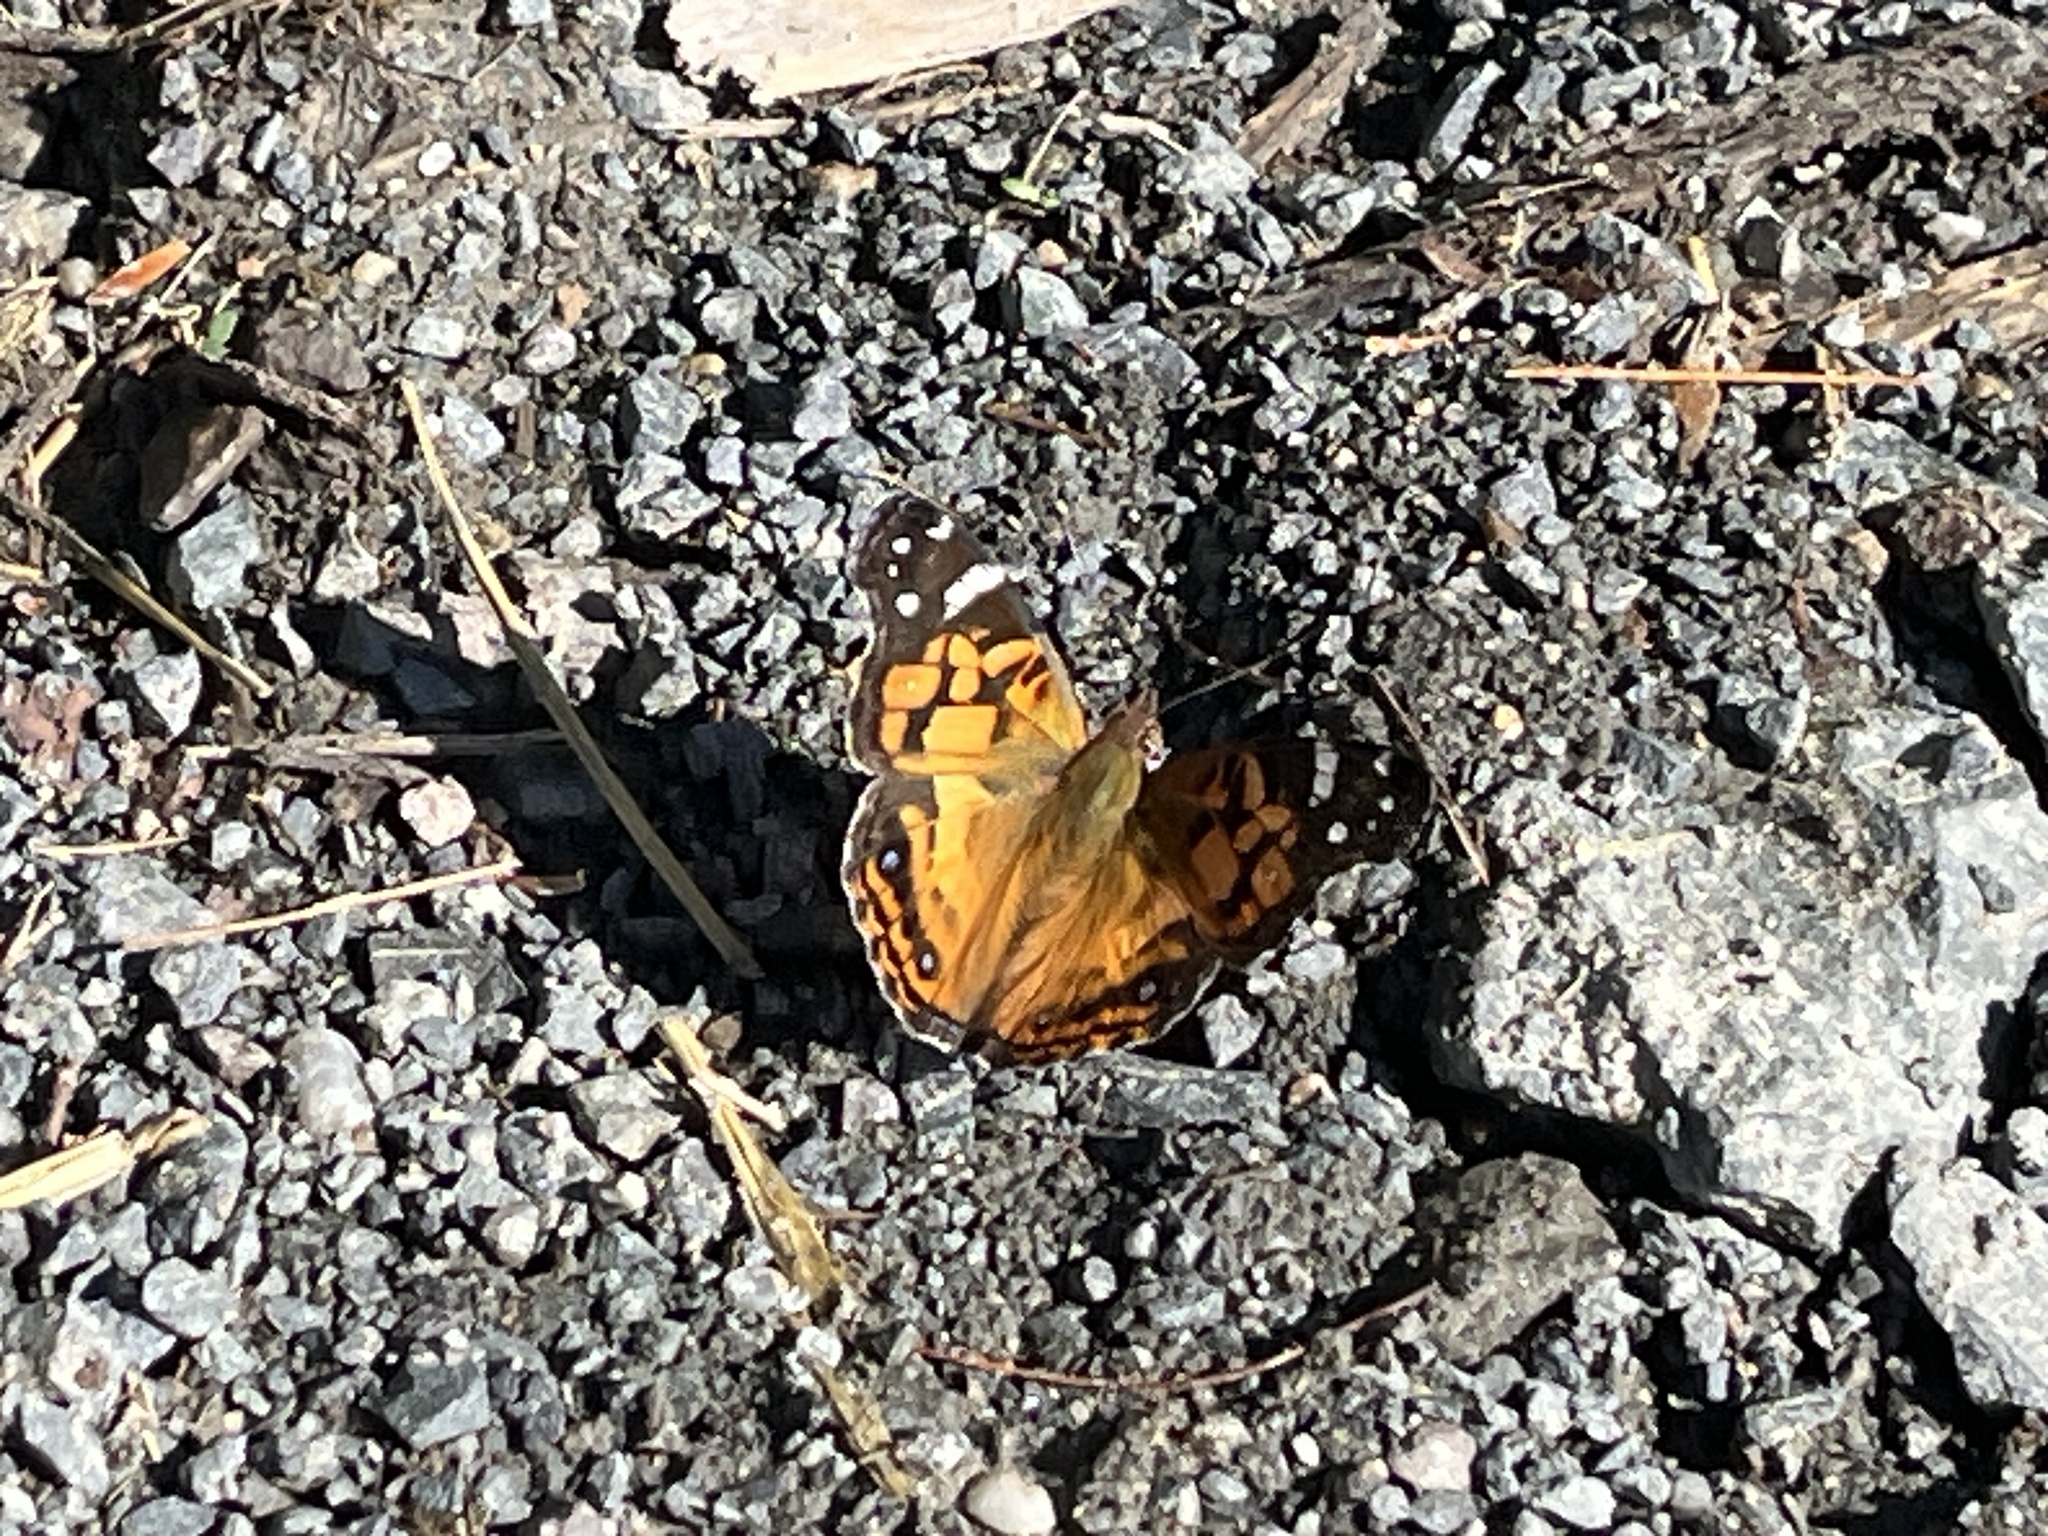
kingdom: Animalia
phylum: Arthropoda
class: Insecta
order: Lepidoptera
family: Nymphalidae
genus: Vanessa
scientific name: Vanessa virginiensis
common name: American lady
